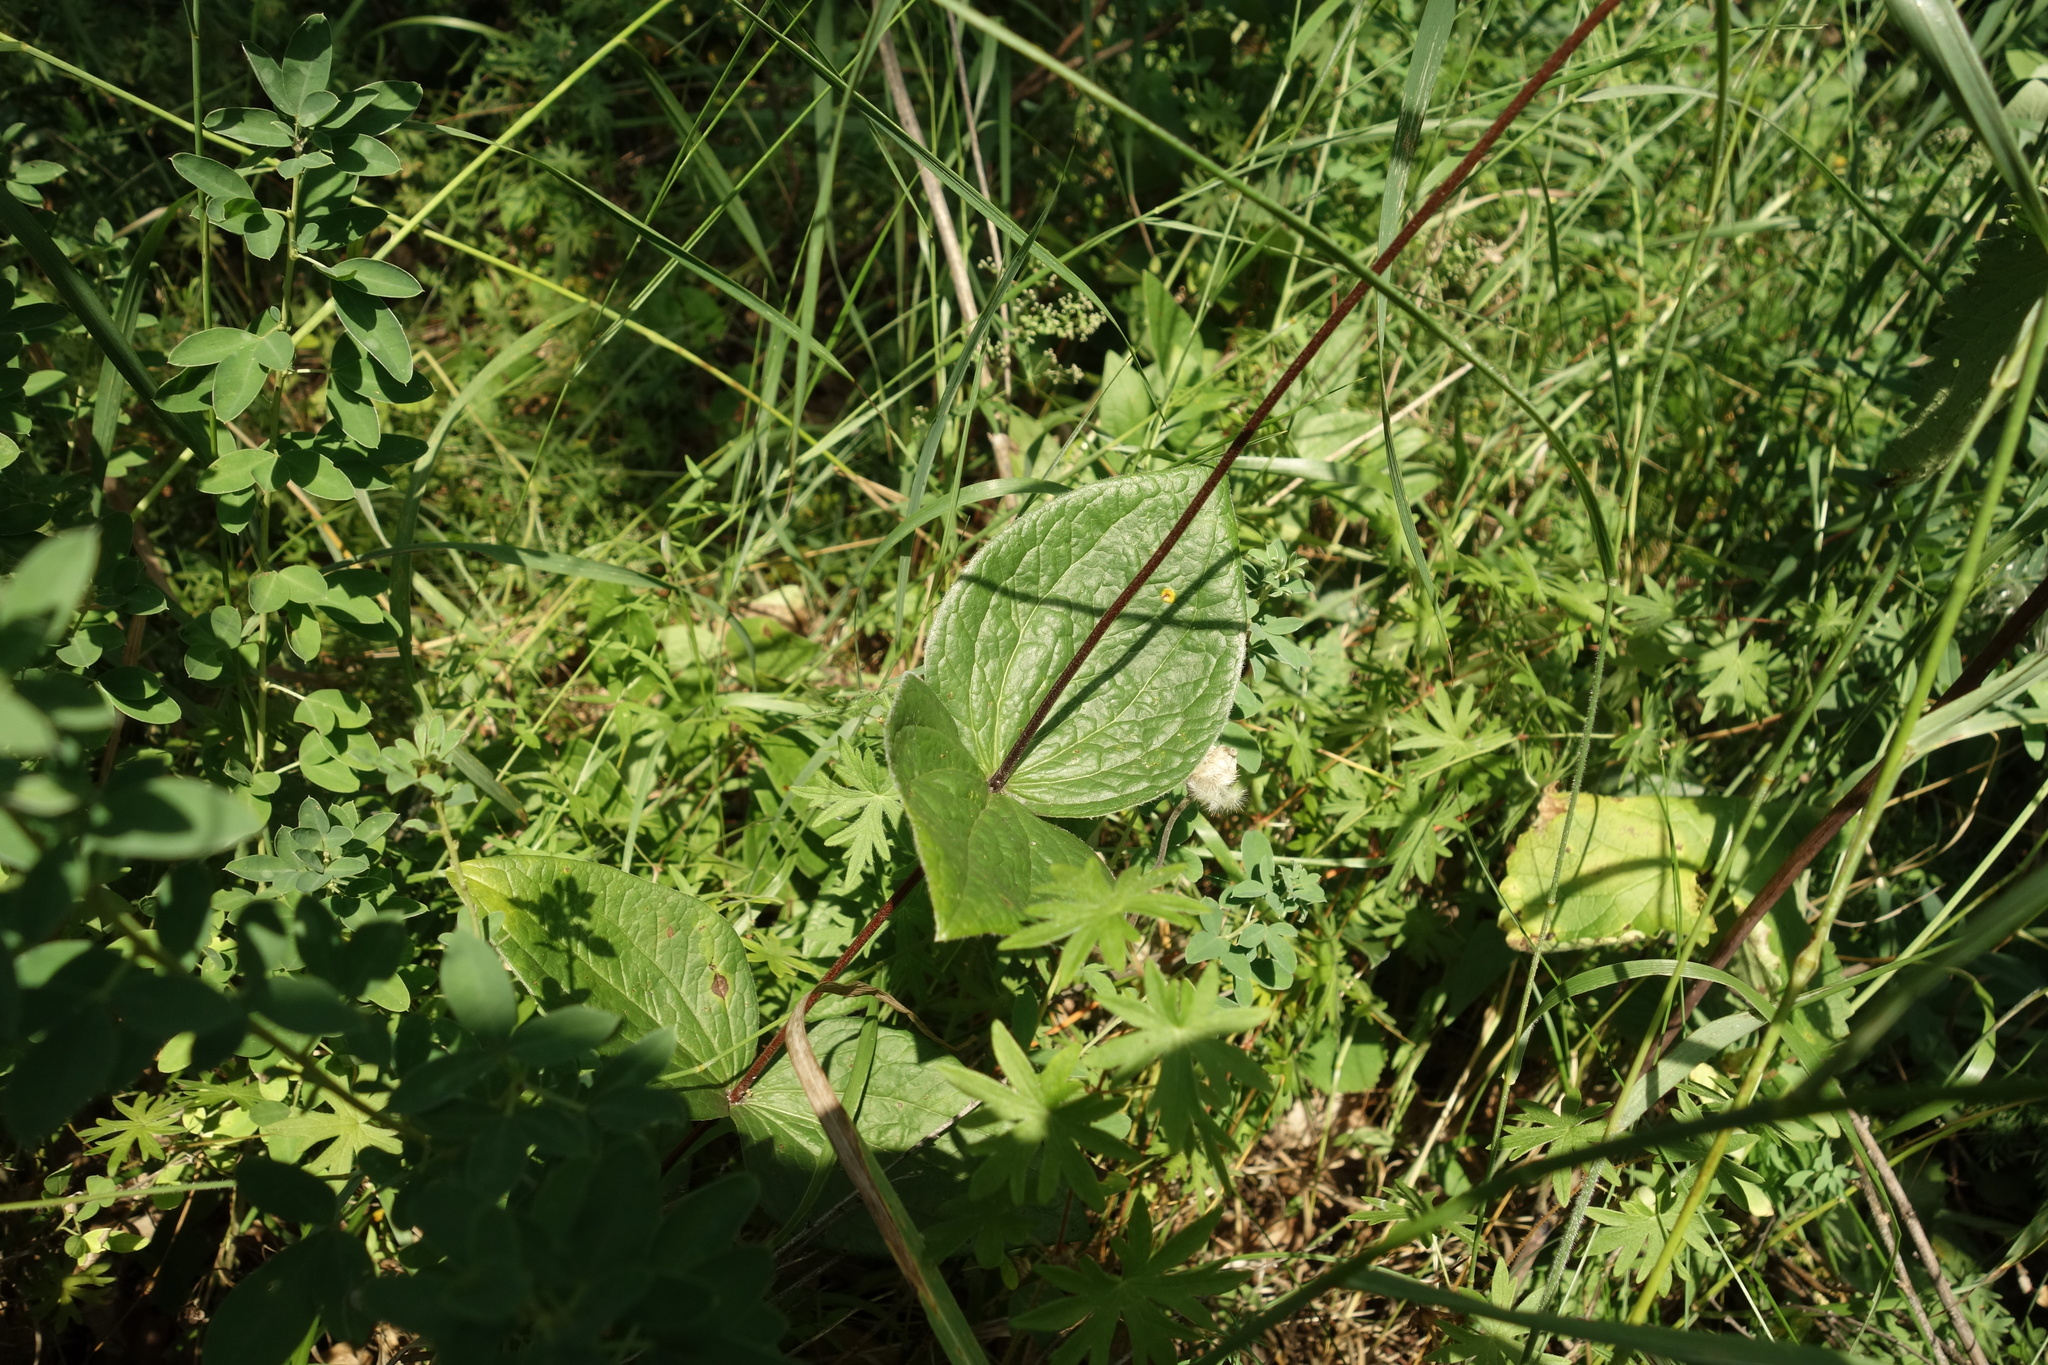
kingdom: Plantae
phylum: Tracheophyta
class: Magnoliopsida
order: Ranunculales
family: Ranunculaceae
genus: Clematis
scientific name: Clematis integrifolia
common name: Solitary clematis
